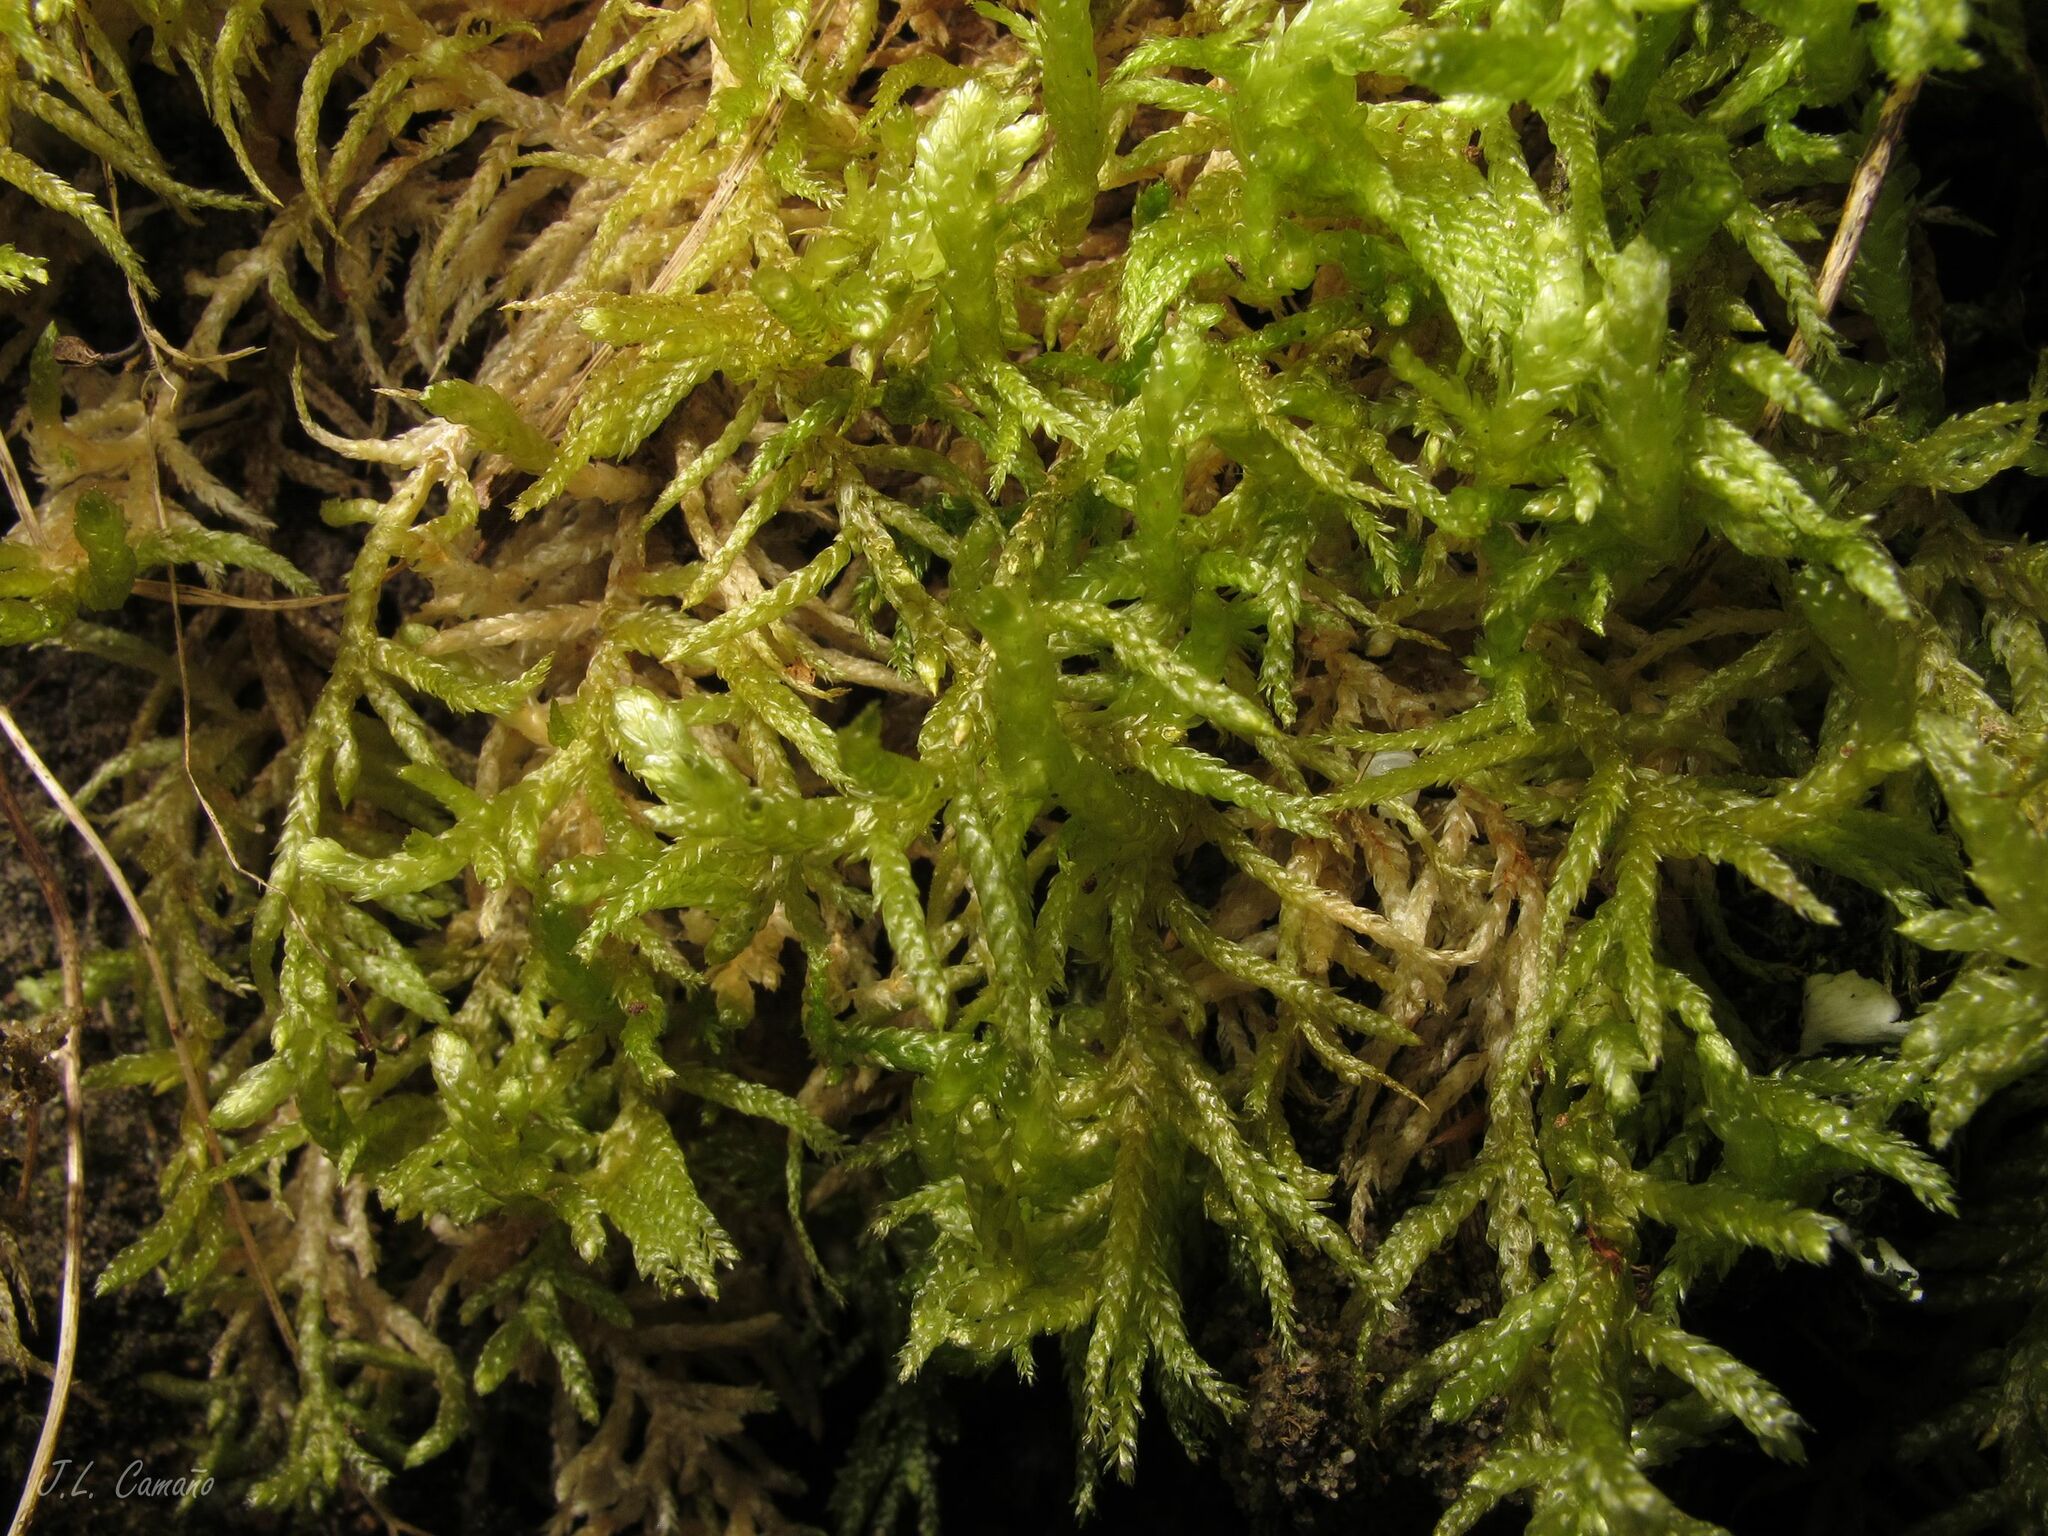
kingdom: Plantae
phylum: Bryophyta
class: Bryopsida
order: Hypnales
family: Brachytheciaceae
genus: Pseudoscleropodium
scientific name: Pseudoscleropodium purum
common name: Neat feather-moss
